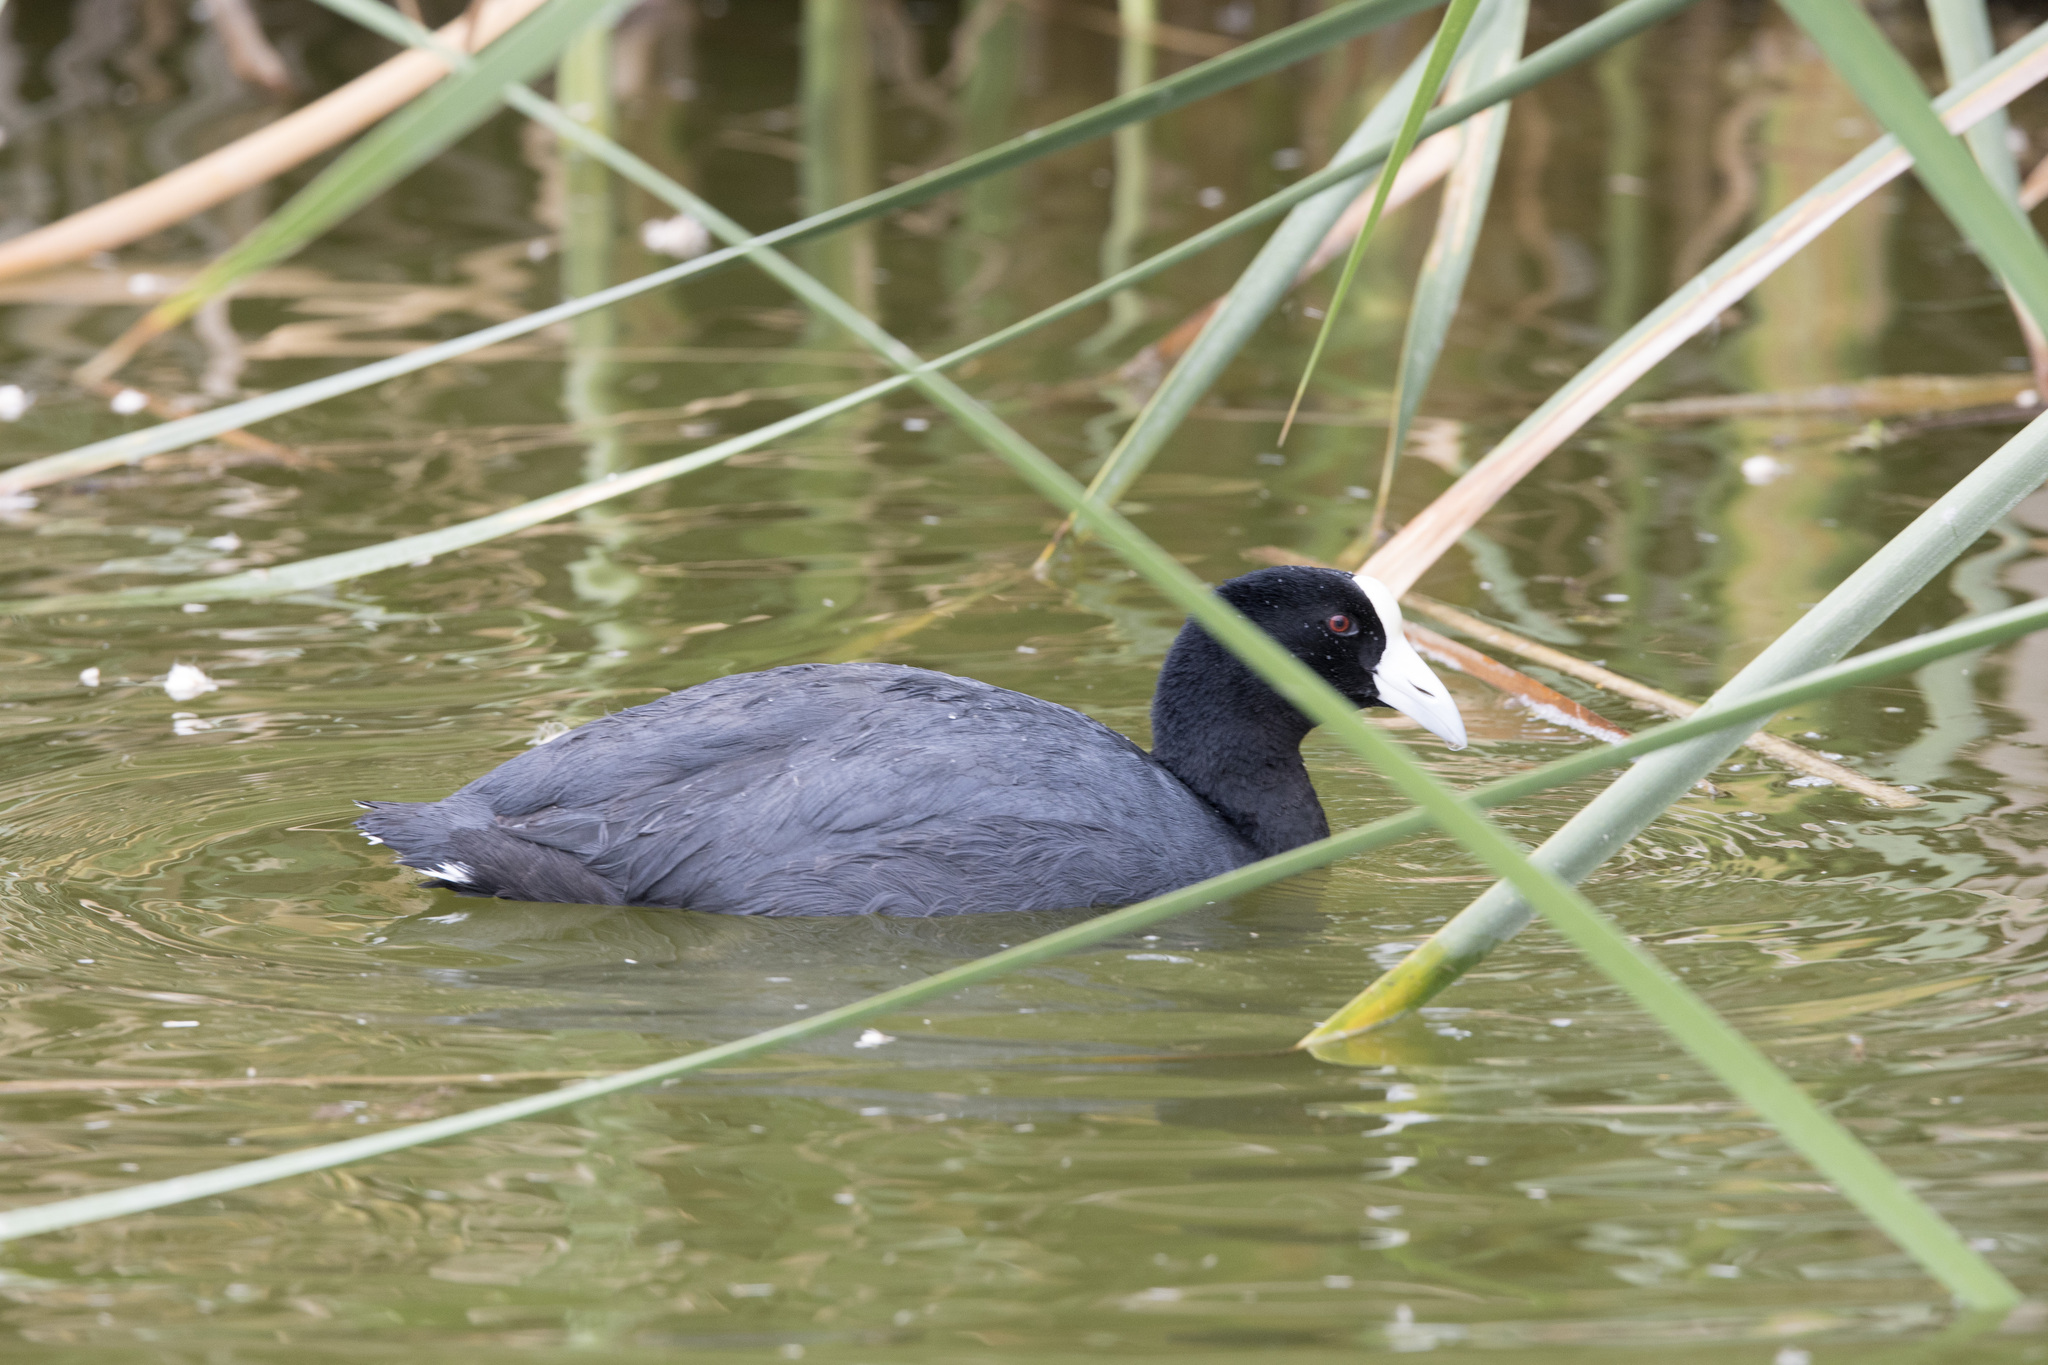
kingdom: Animalia
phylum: Chordata
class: Aves
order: Gruiformes
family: Rallidae
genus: Fulica
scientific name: Fulica ardesiaca
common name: Andean coot
